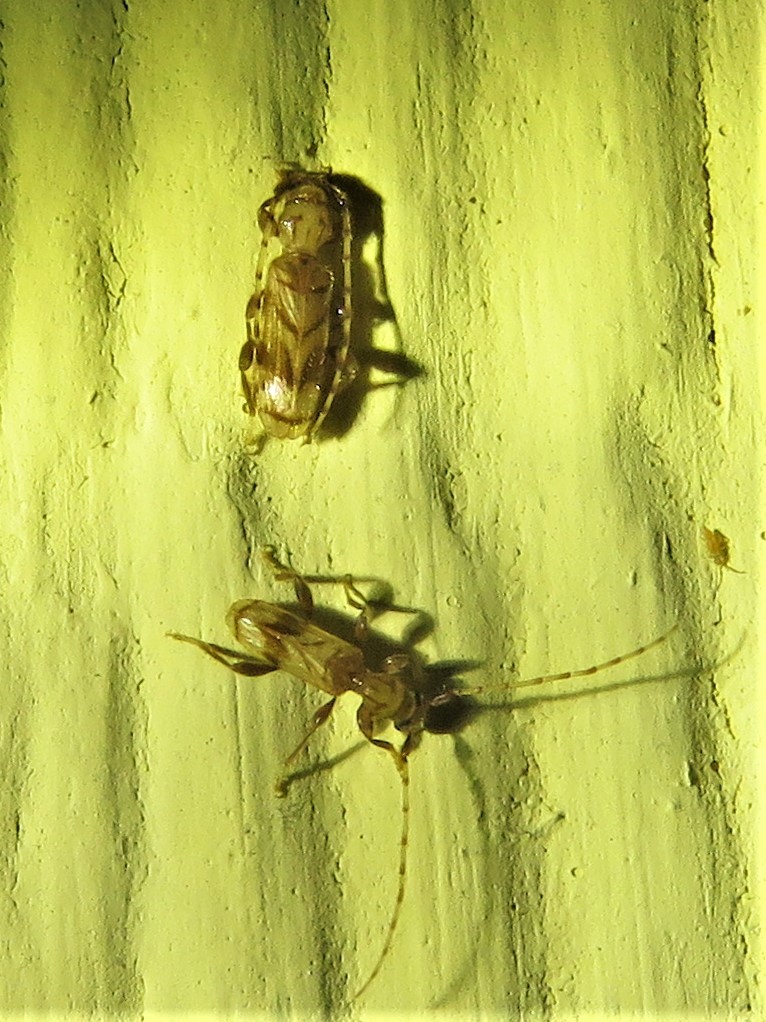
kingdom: Animalia
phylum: Arthropoda
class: Insecta
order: Coleoptera
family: Cerambycidae
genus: Obrium
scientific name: Obrium maculatum
